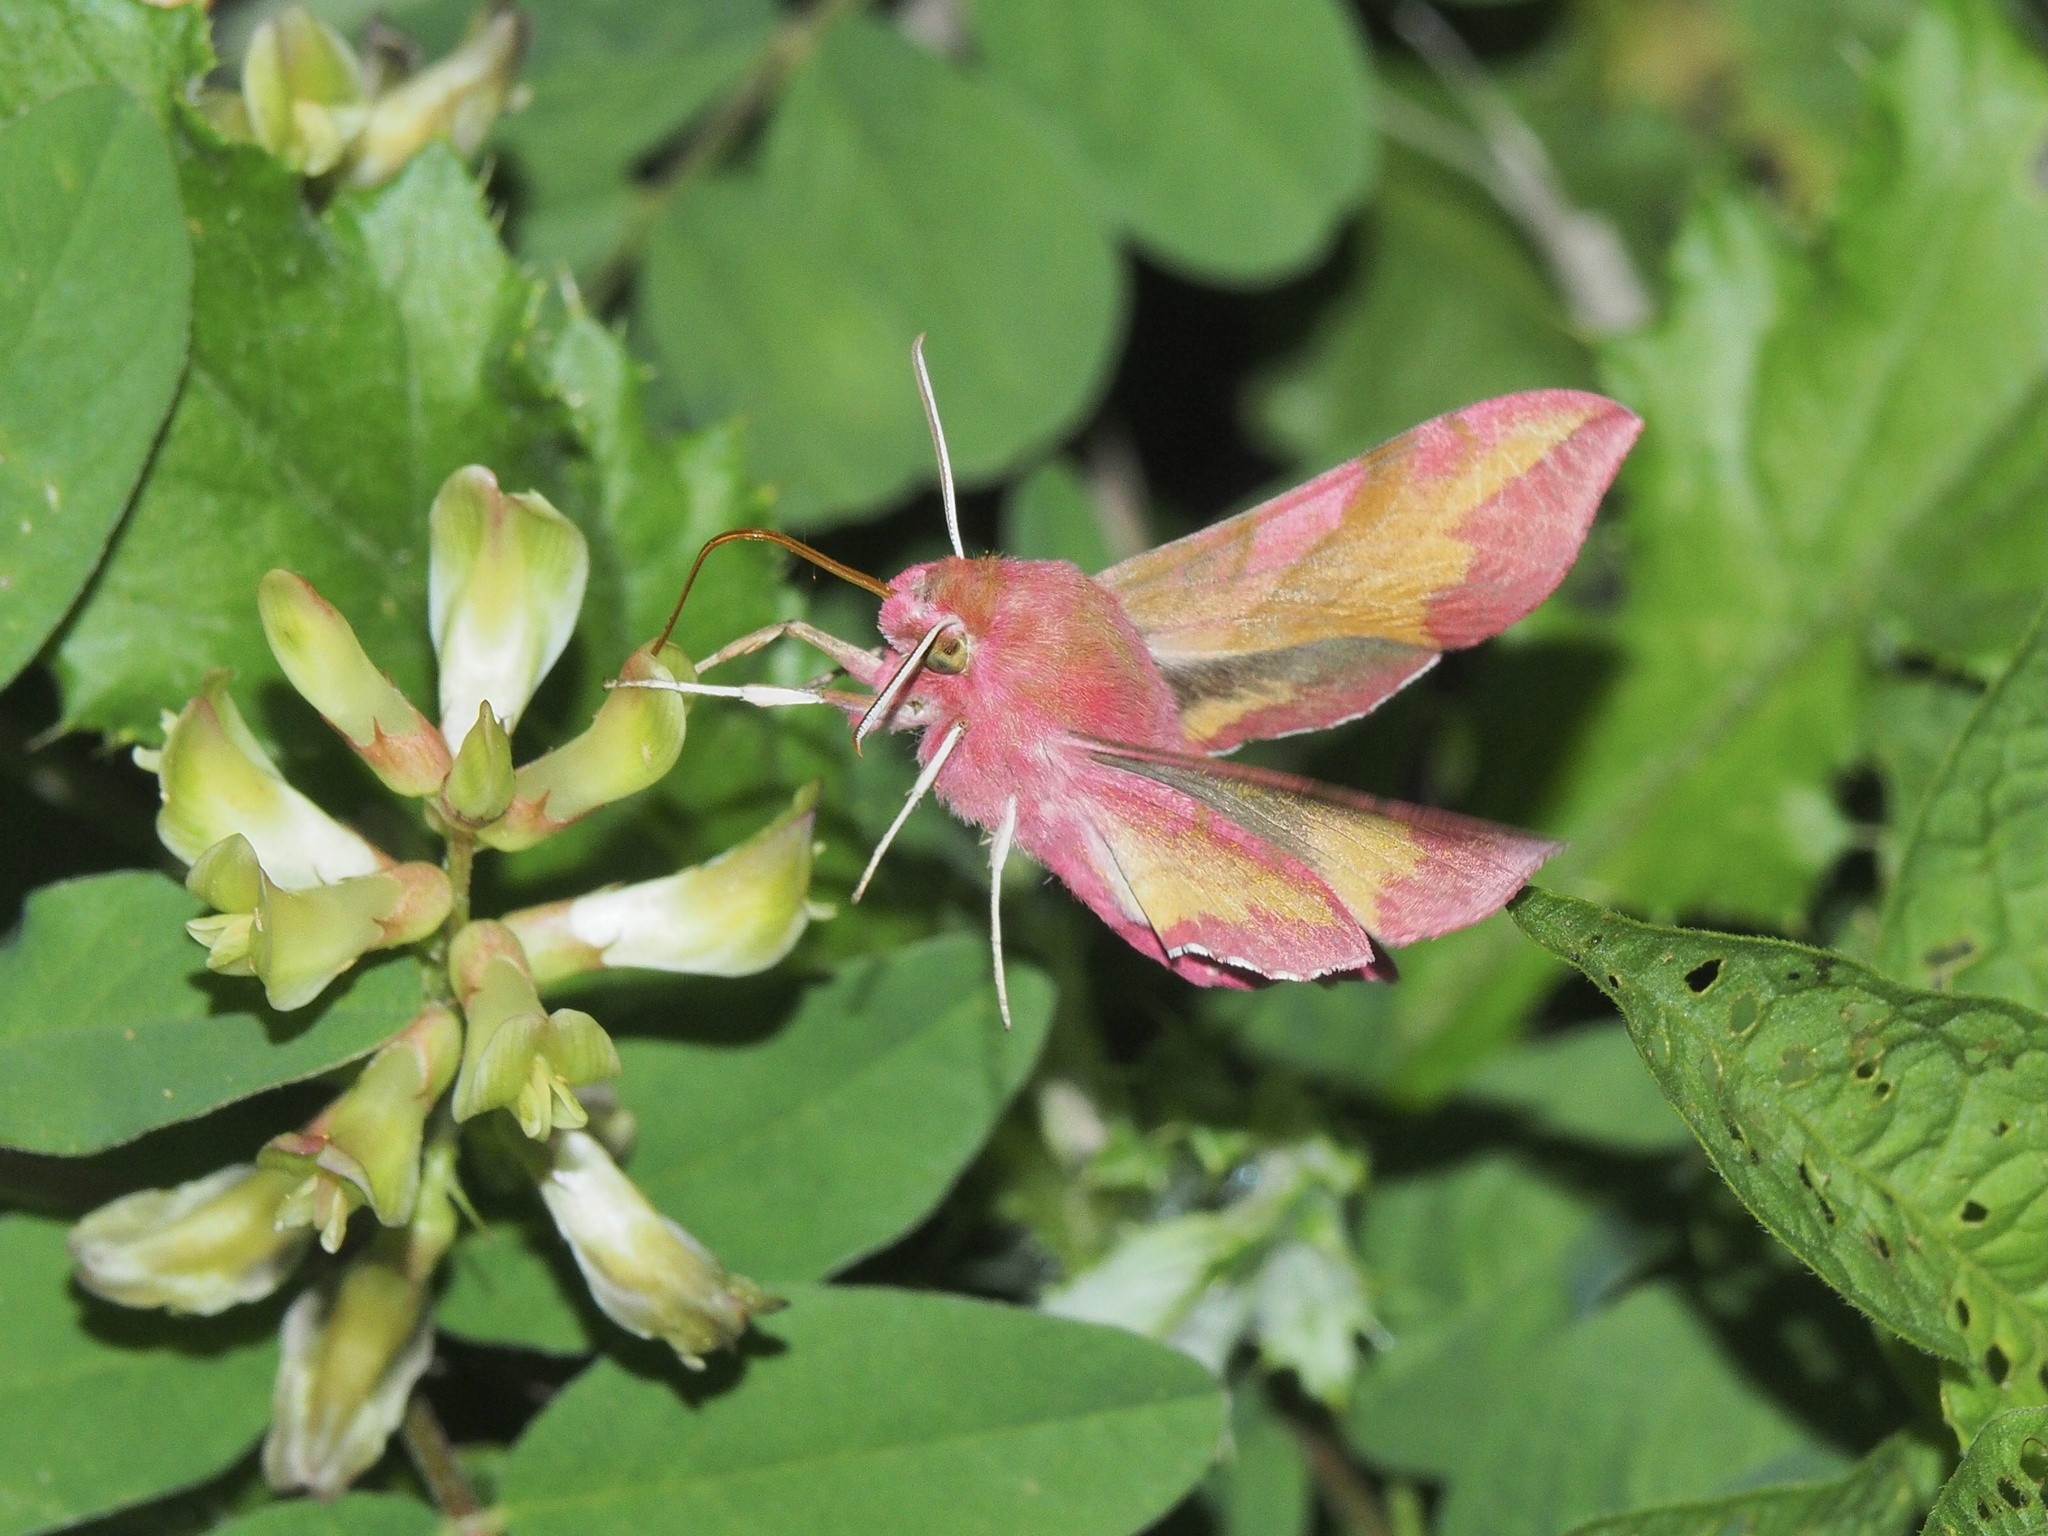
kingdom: Animalia
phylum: Arthropoda
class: Insecta
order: Lepidoptera
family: Sphingidae
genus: Deilephila
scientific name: Deilephila porcellus
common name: Small elephant hawk-moth
